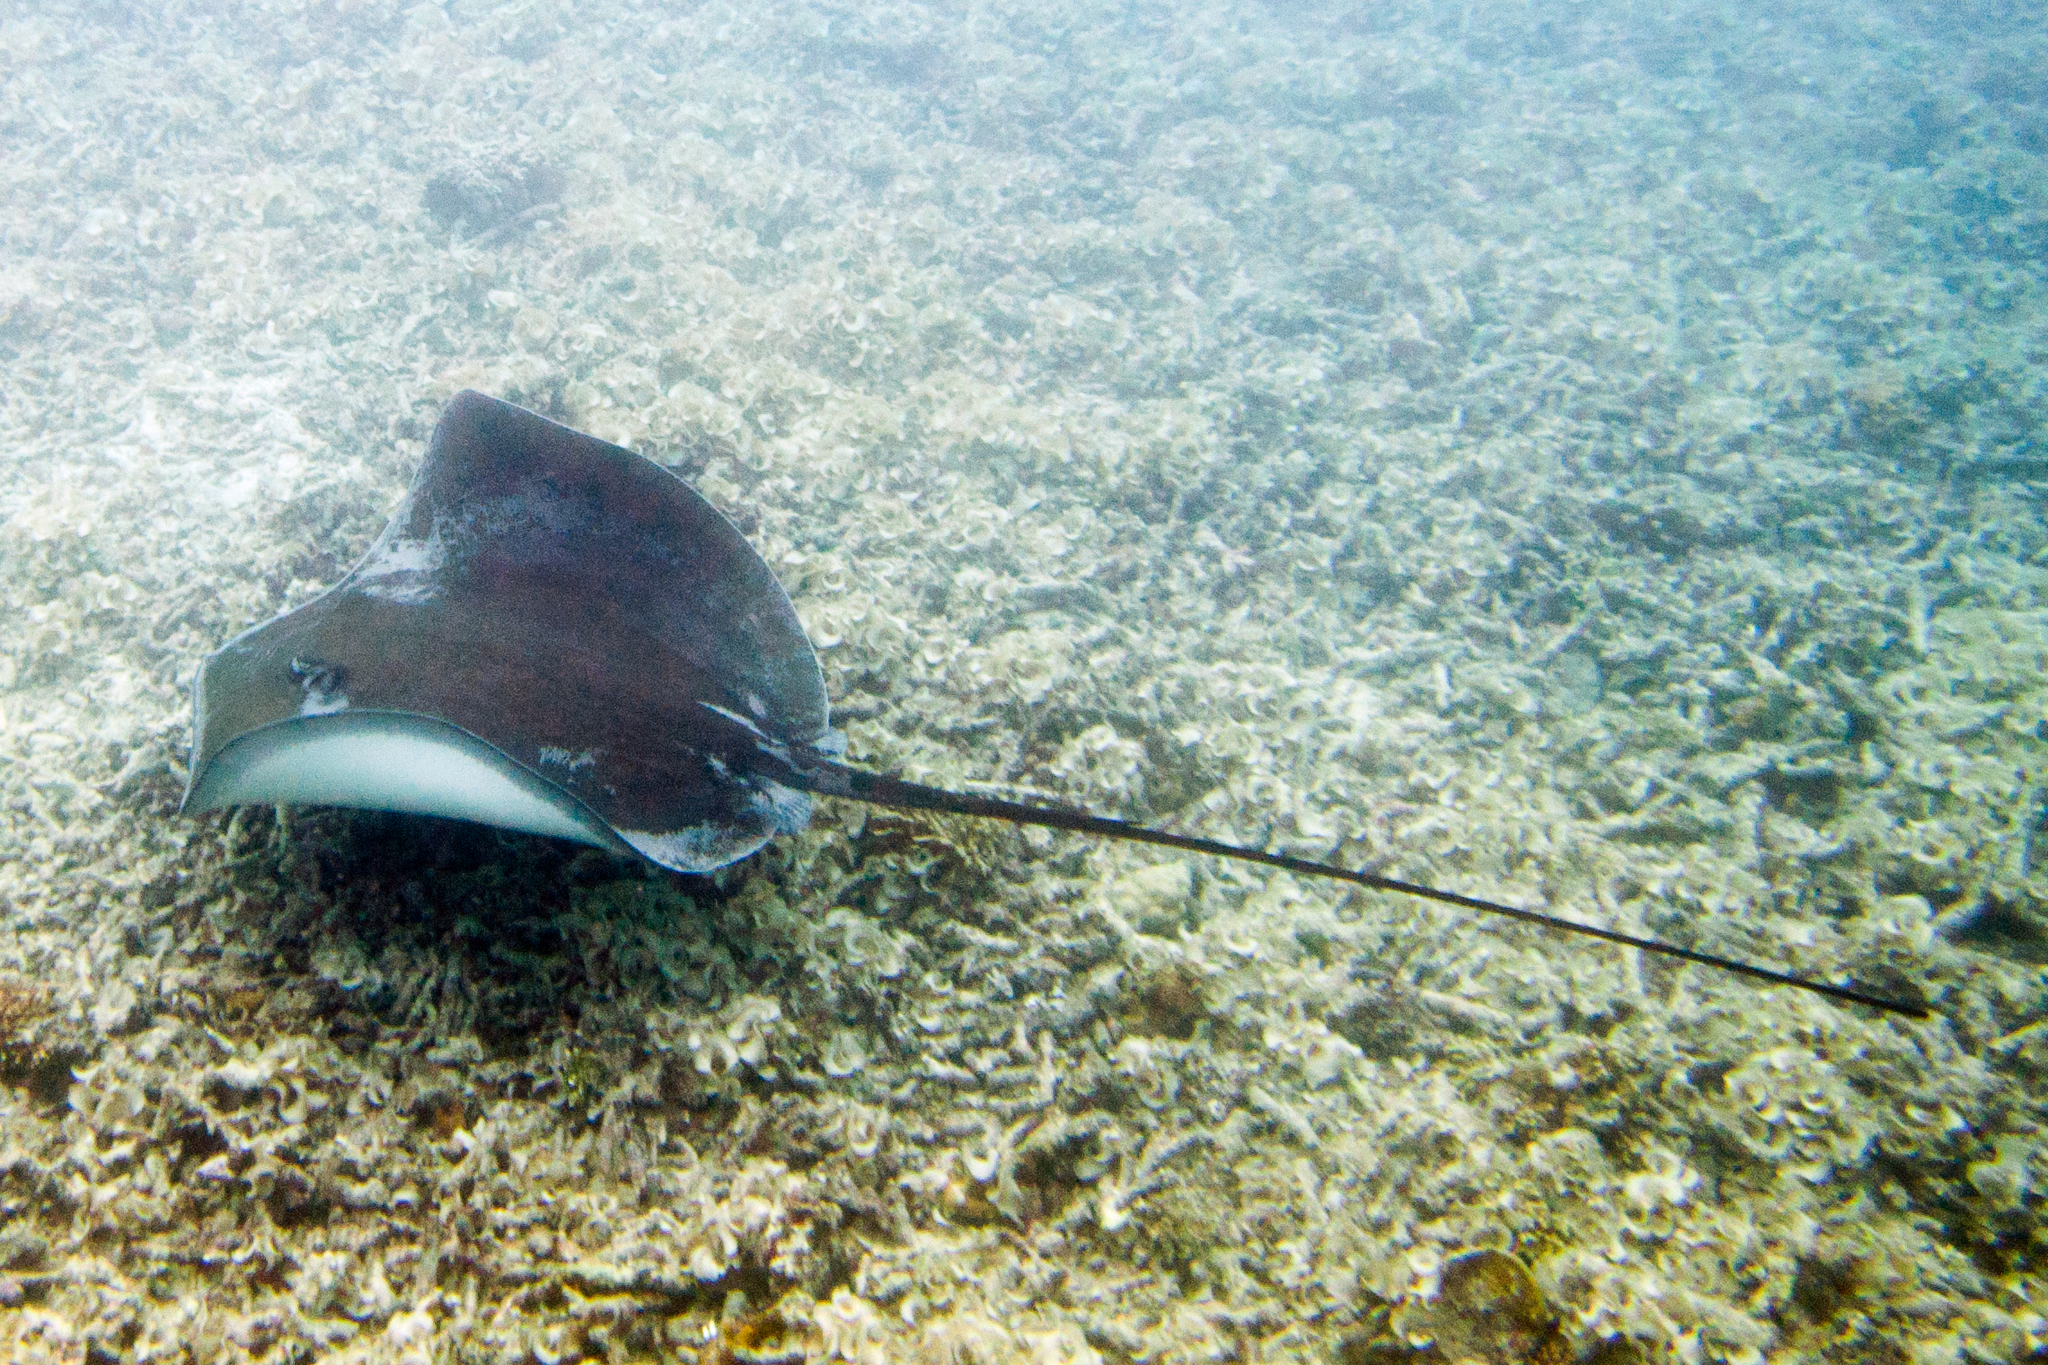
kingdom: Animalia
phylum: Chordata
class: Elasmobranchii
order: Myliobatiformes
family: Dasyatidae
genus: Pateobatis
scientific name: Pateobatis fai
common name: Pink whipray
